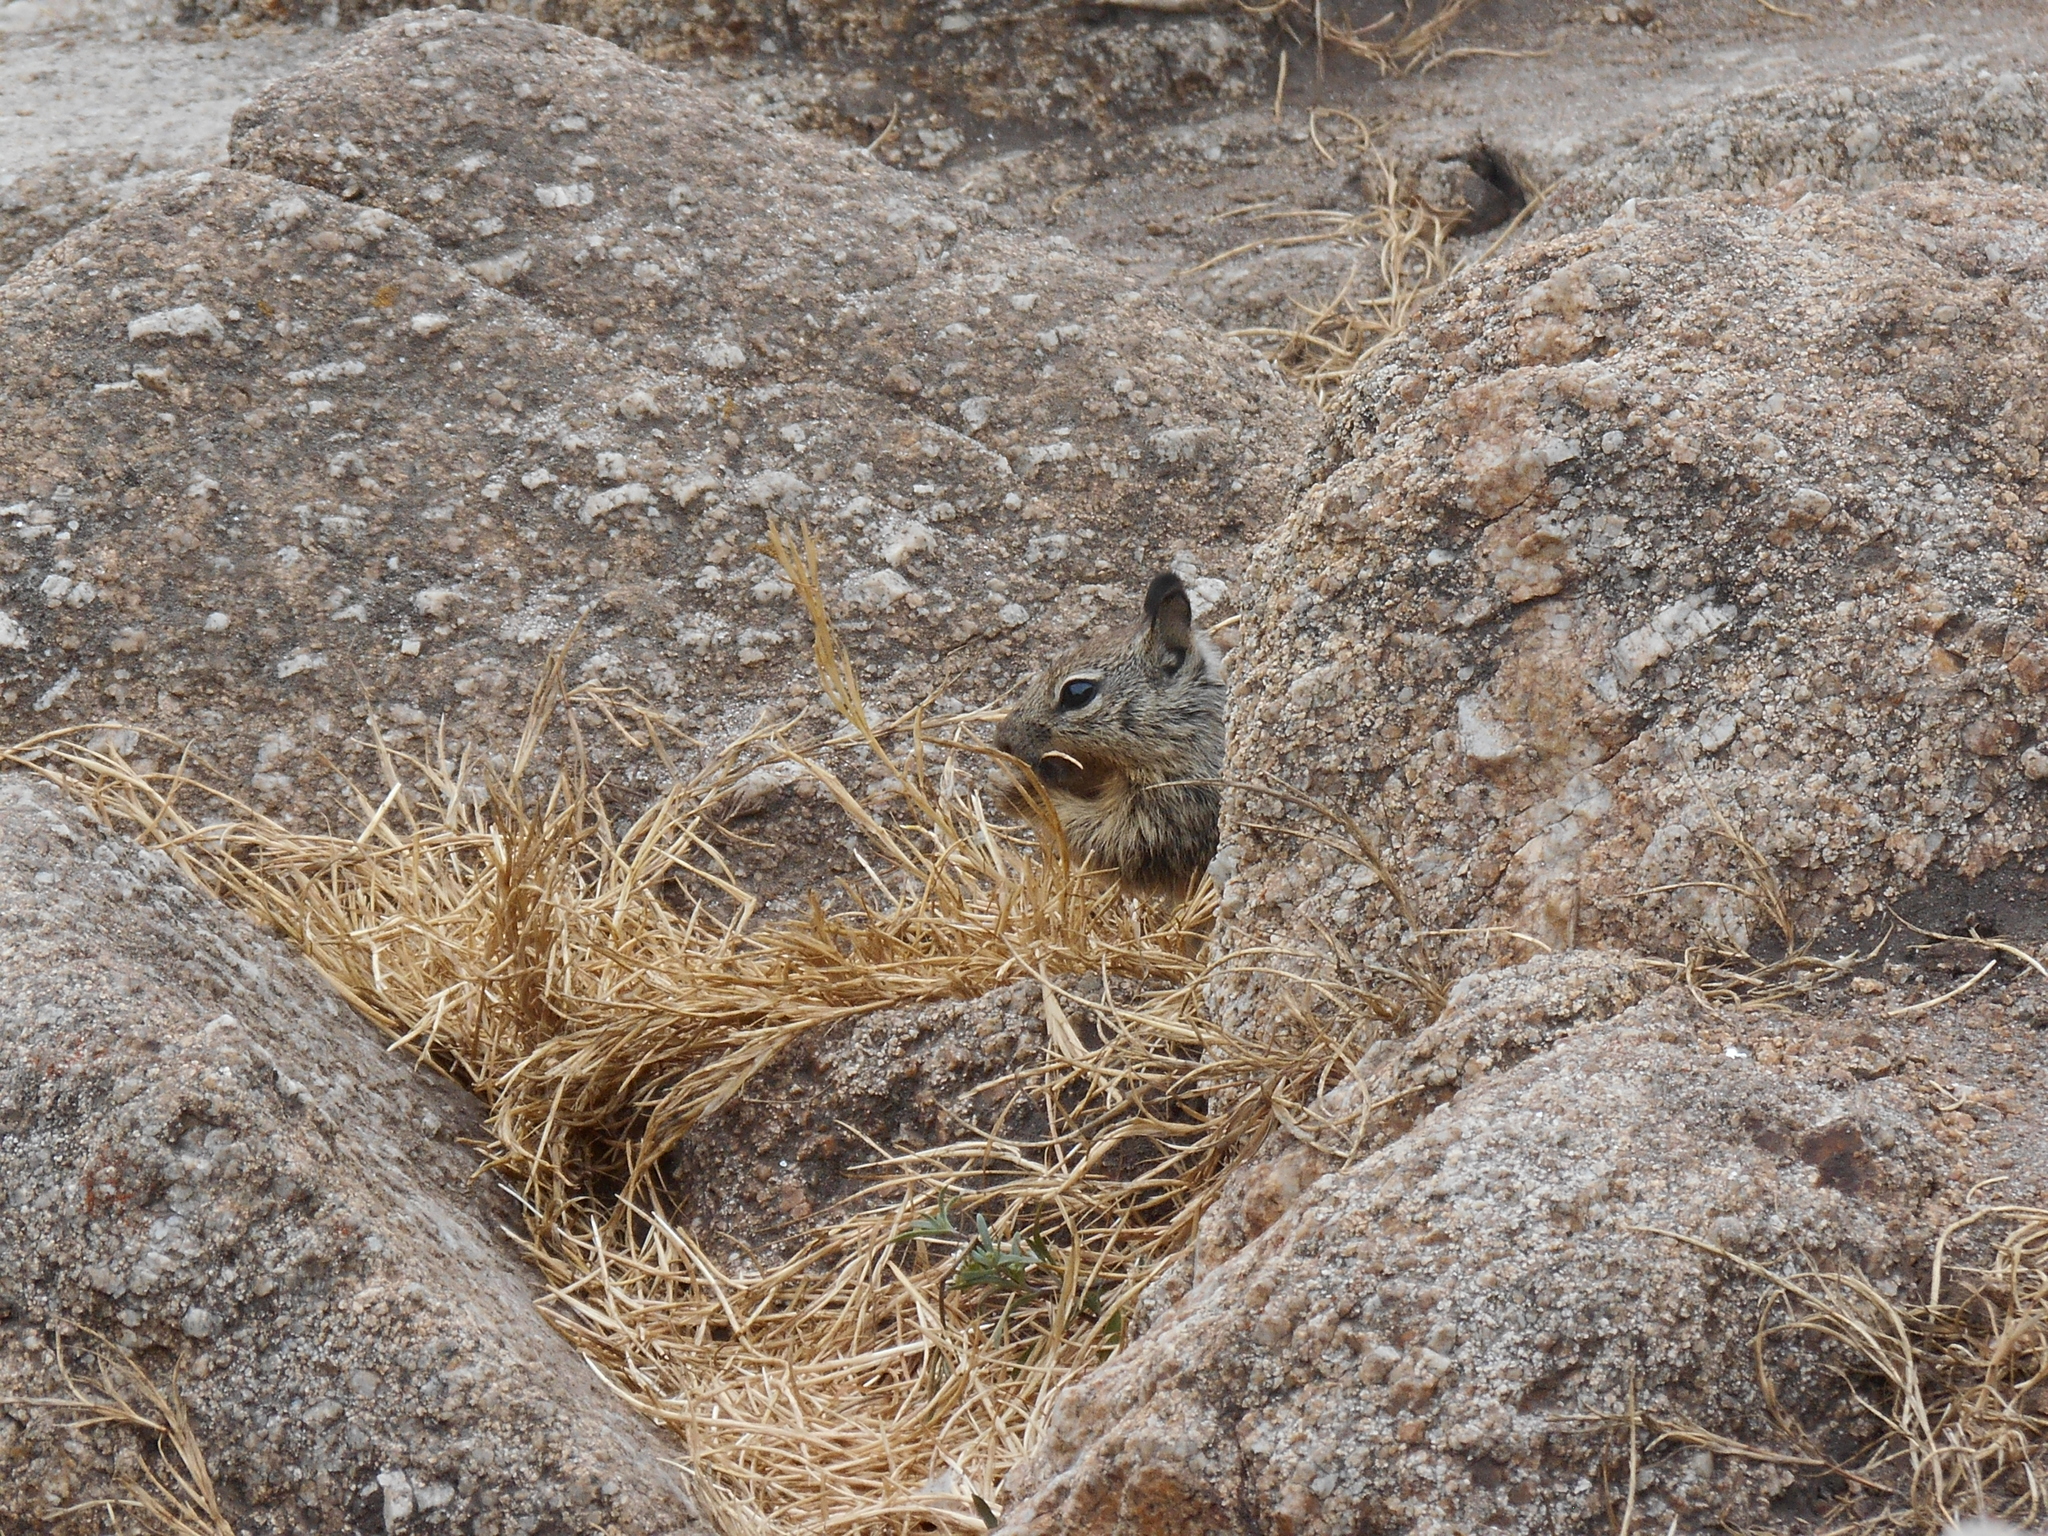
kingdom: Animalia
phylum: Chordata
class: Mammalia
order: Rodentia
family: Sciuridae
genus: Otospermophilus
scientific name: Otospermophilus beecheyi
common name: California ground squirrel
